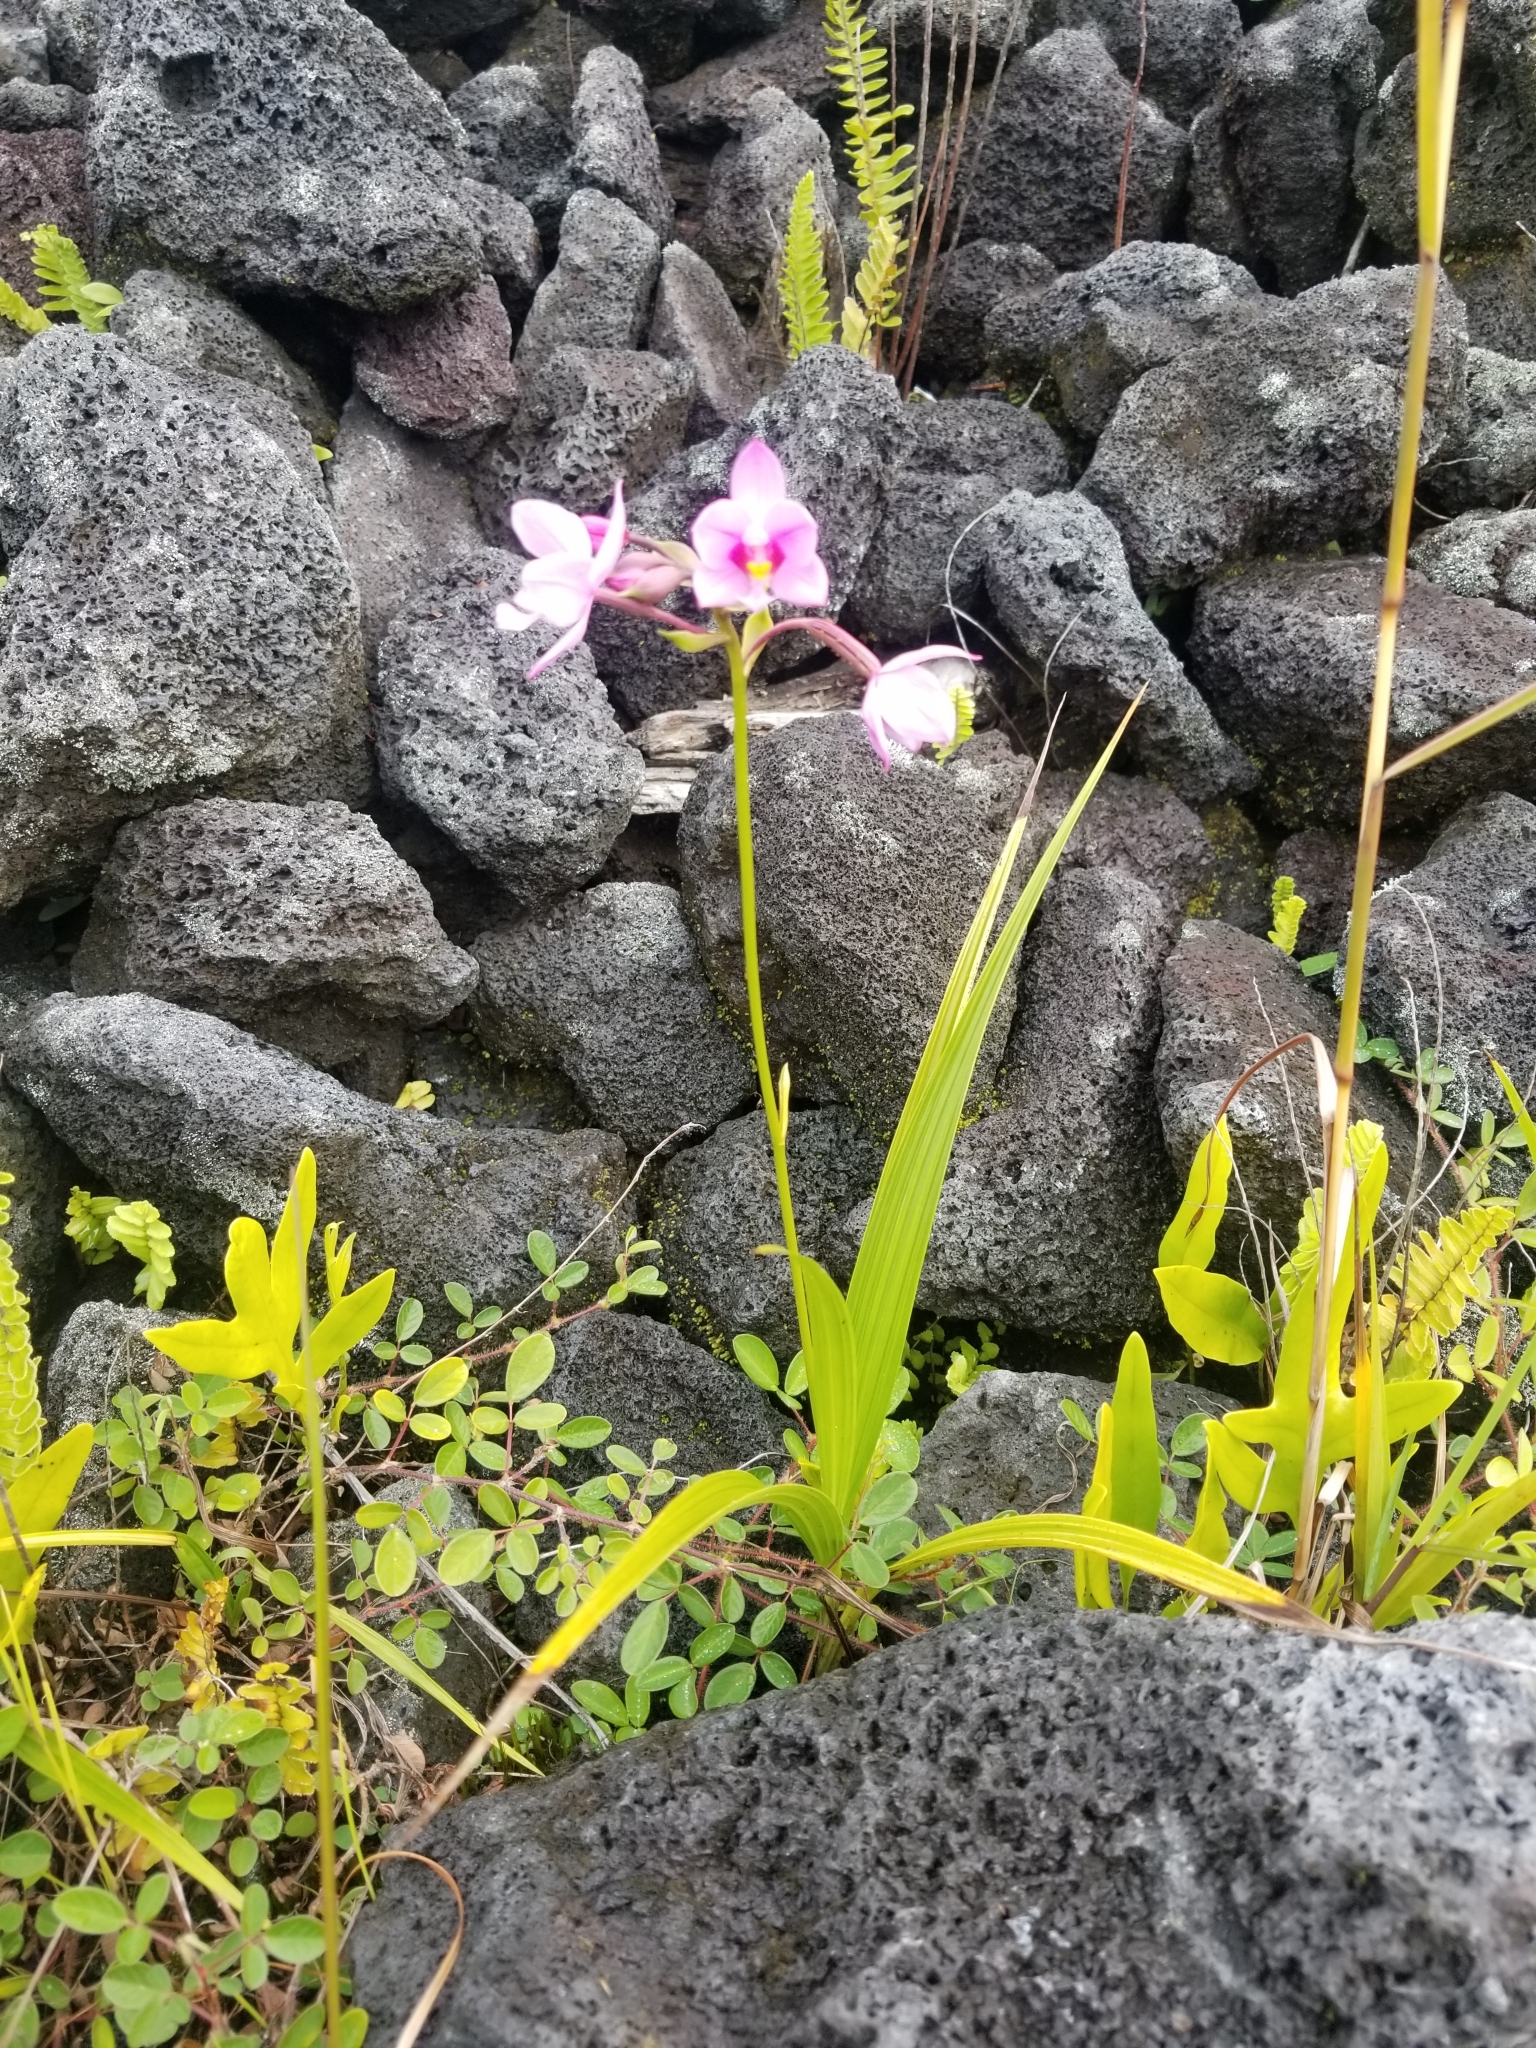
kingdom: Plantae
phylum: Tracheophyta
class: Liliopsida
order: Asparagales
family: Orchidaceae
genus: Spathoglottis
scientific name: Spathoglottis plicata
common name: Philippine ground orchid
